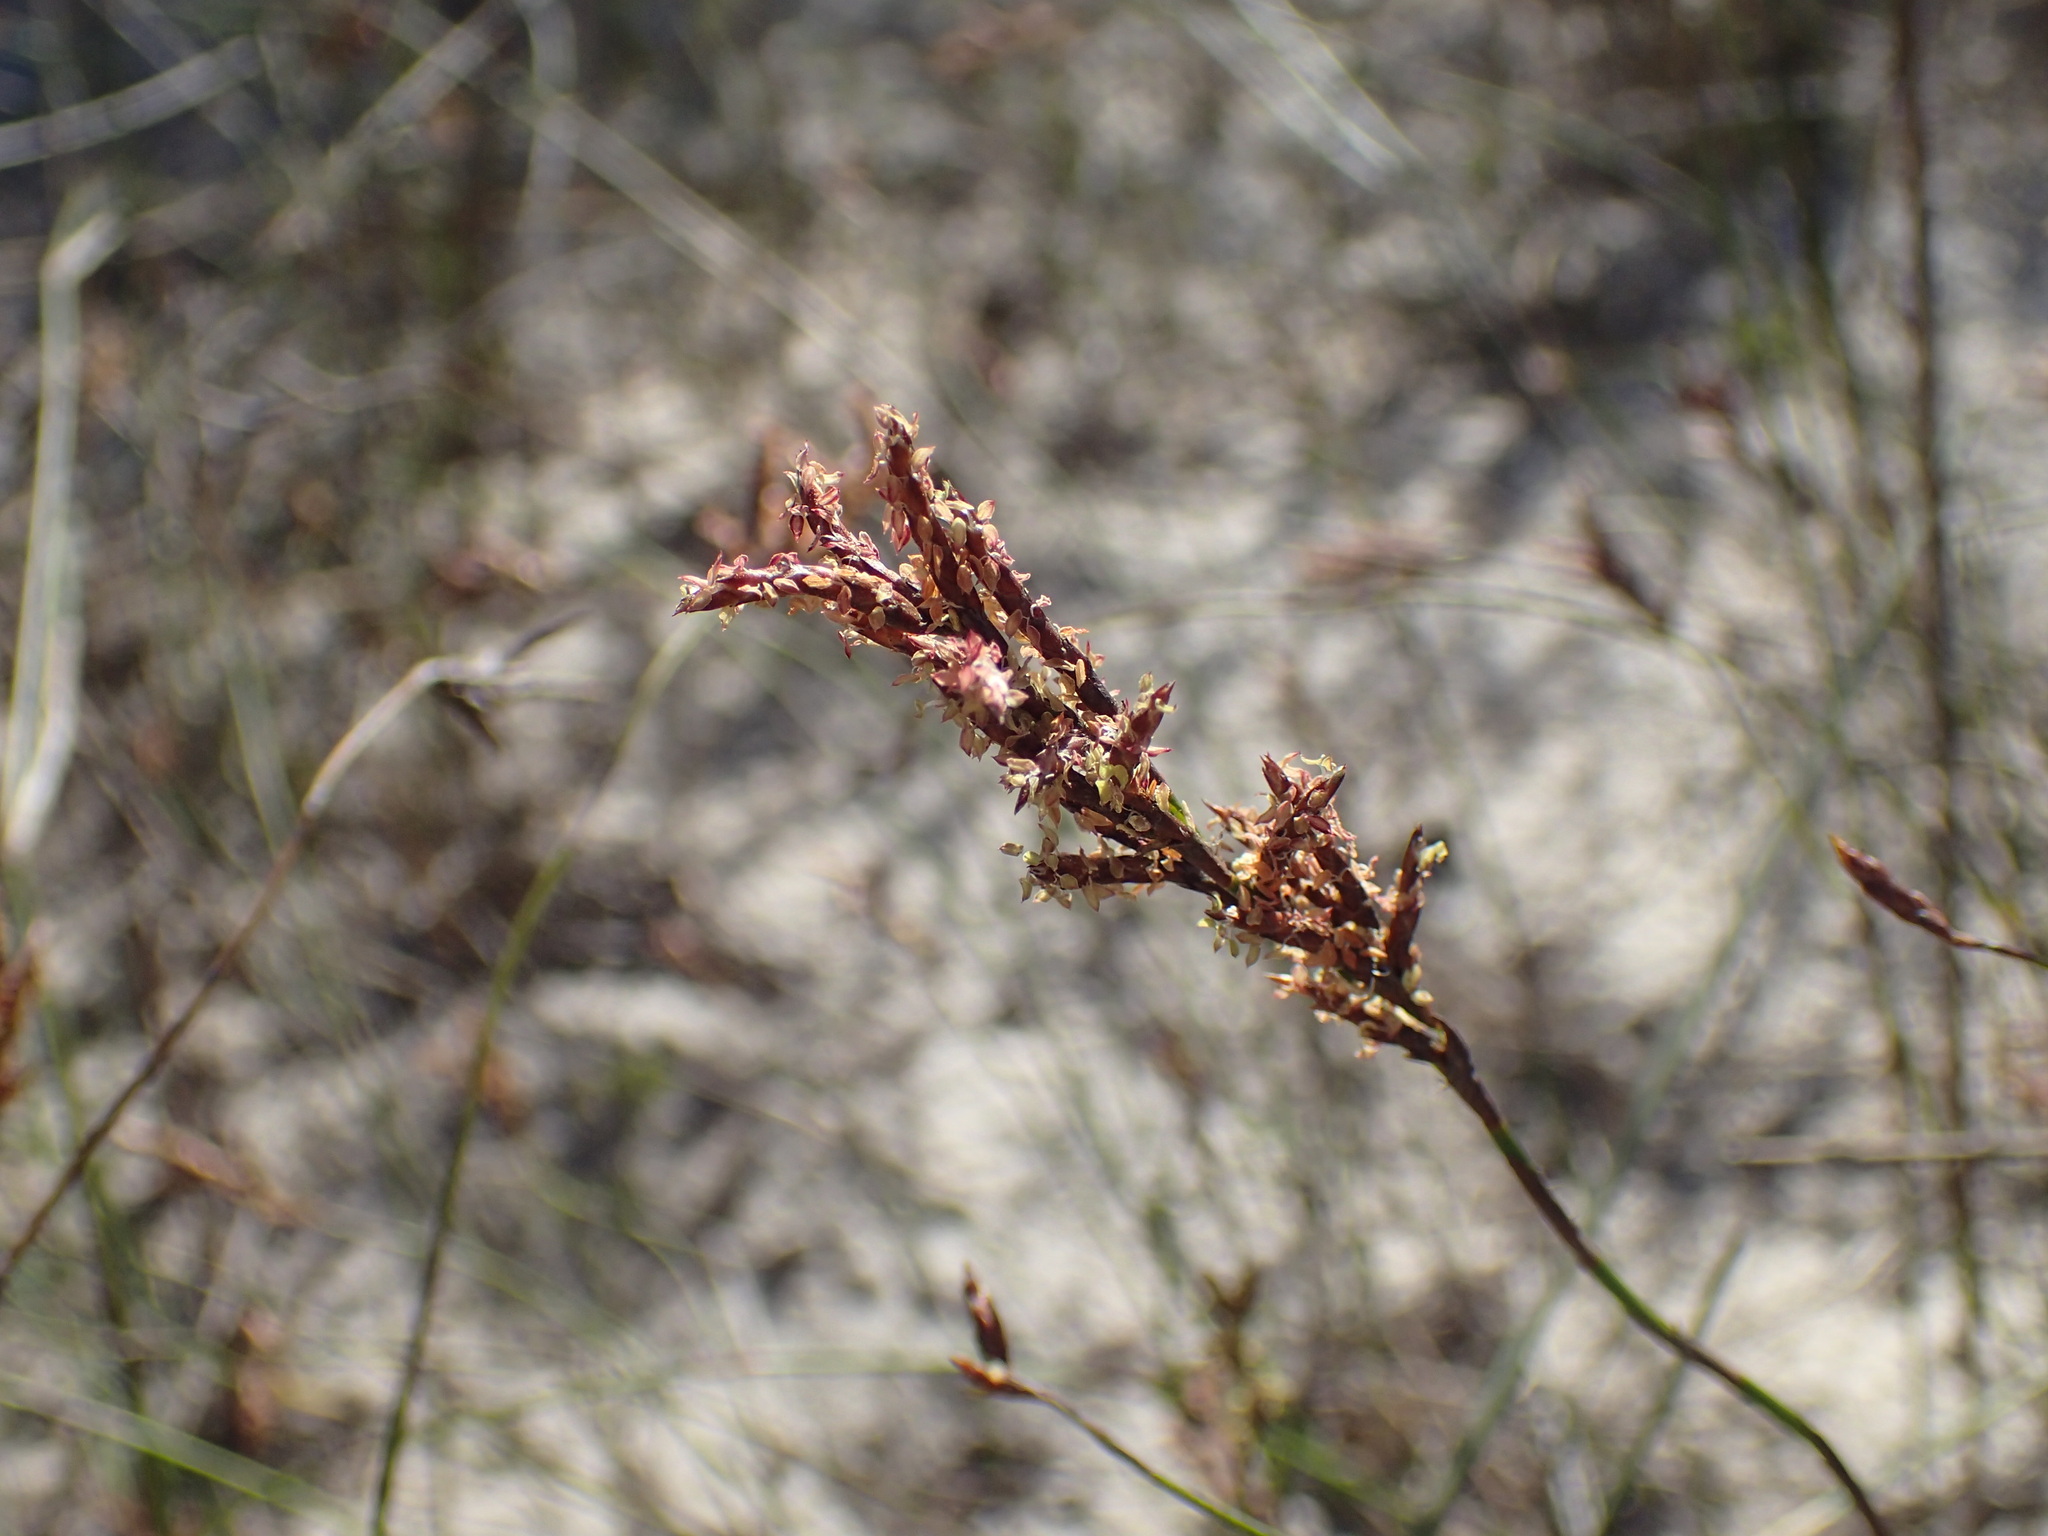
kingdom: Plantae
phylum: Tracheophyta
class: Liliopsida
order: Poales
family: Restionaceae
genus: Restio
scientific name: Restio sieberi
